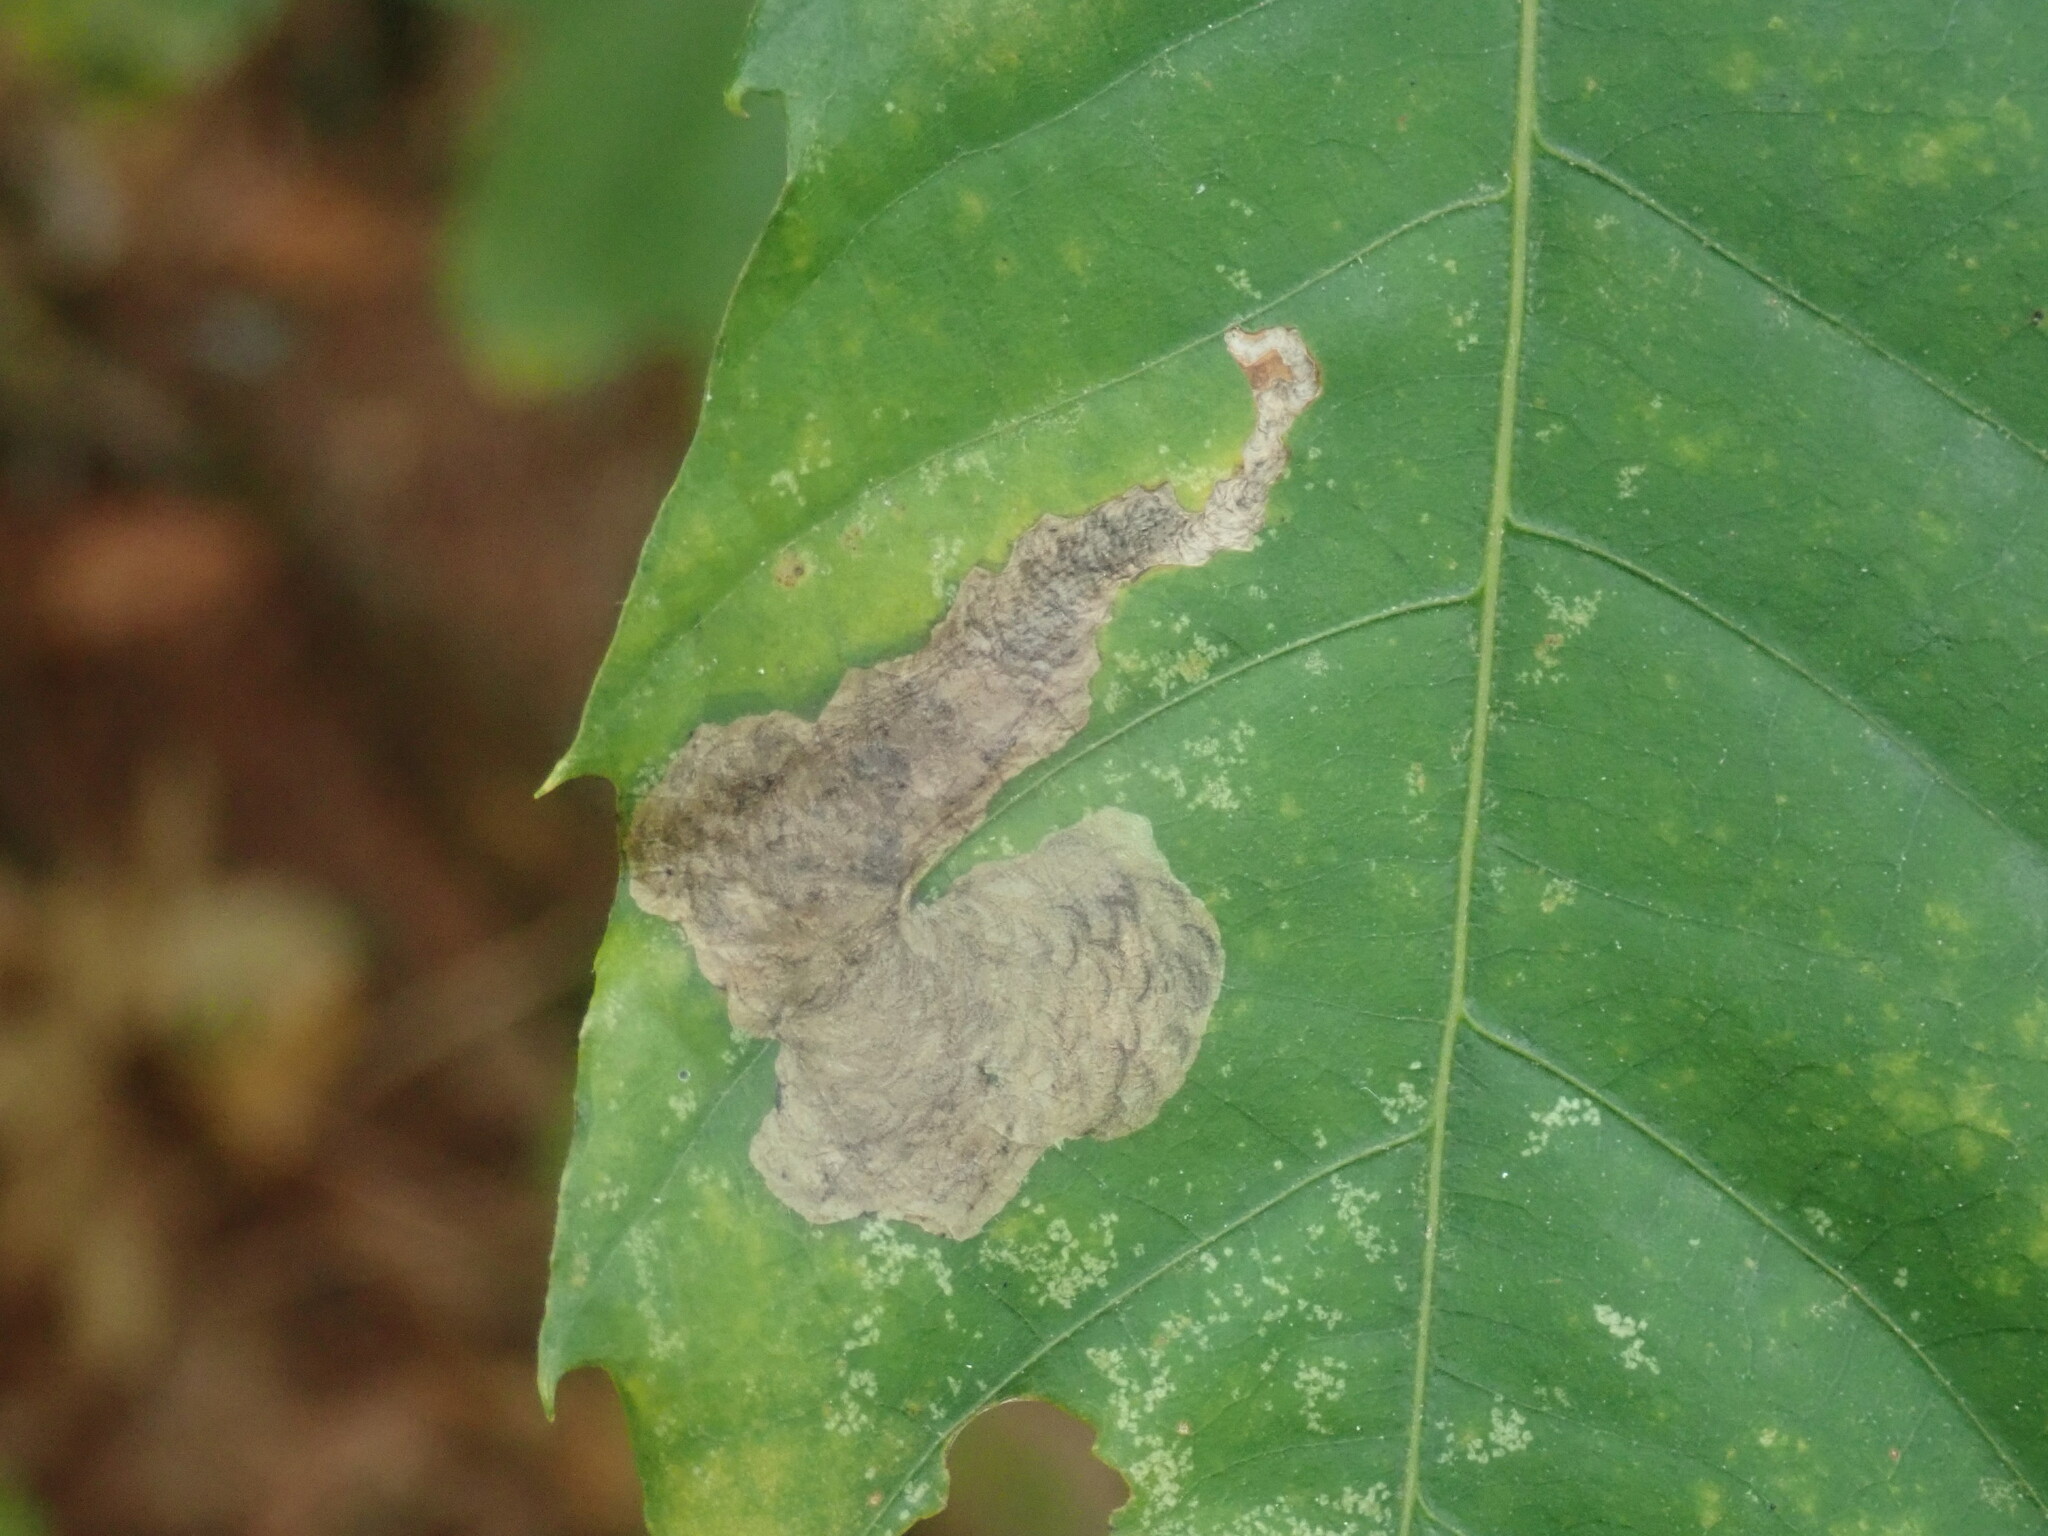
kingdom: Animalia
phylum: Arthropoda
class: Insecta
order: Lepidoptera
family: Tischeriidae
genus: Coptotriche
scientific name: Coptotriche castaneaeella
